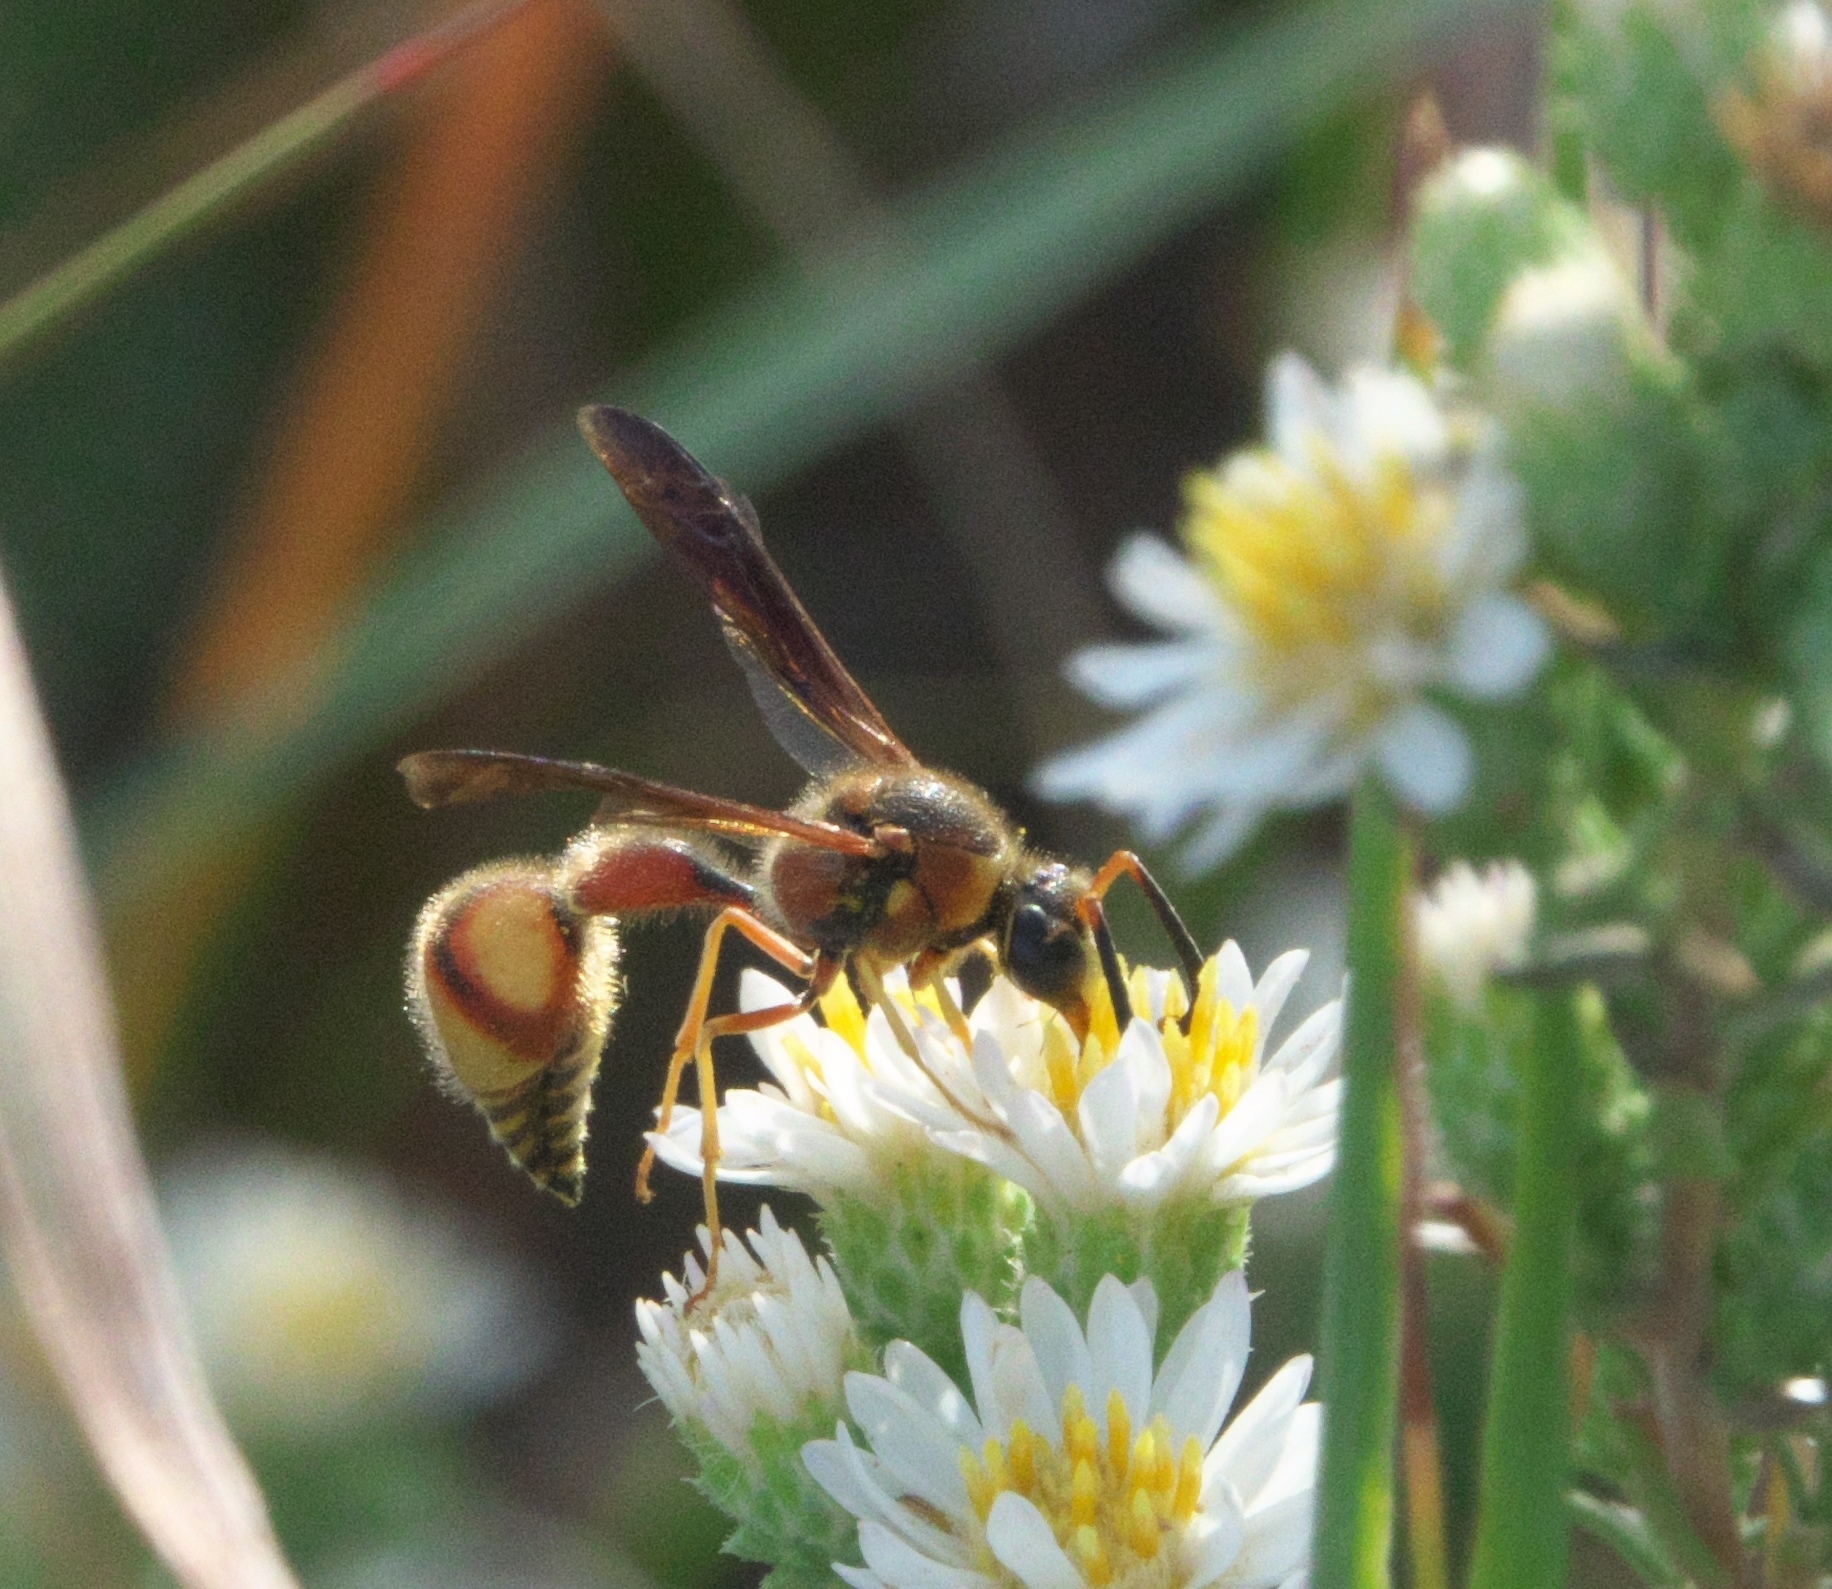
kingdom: Animalia
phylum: Arthropoda
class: Insecta
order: Hymenoptera
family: Vespidae
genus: Eumenes
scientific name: Eumenes bollii
